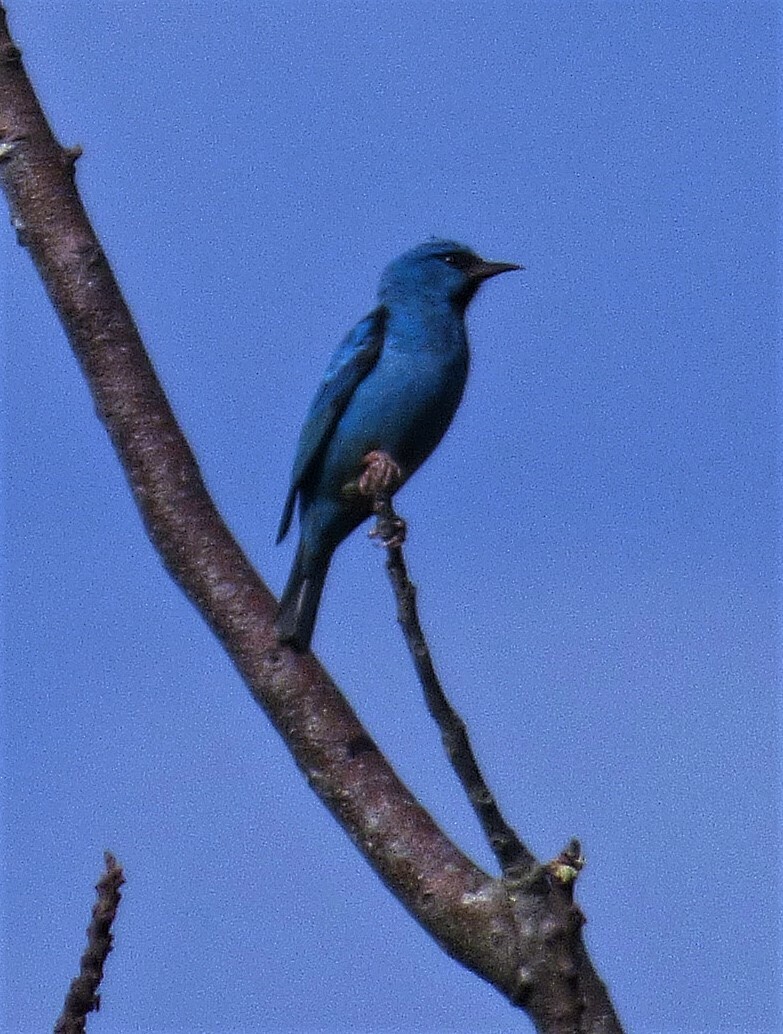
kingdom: Animalia
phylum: Chordata
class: Aves
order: Passeriformes
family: Thraupidae
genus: Dacnis
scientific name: Dacnis cayana
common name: Blue dacnis
